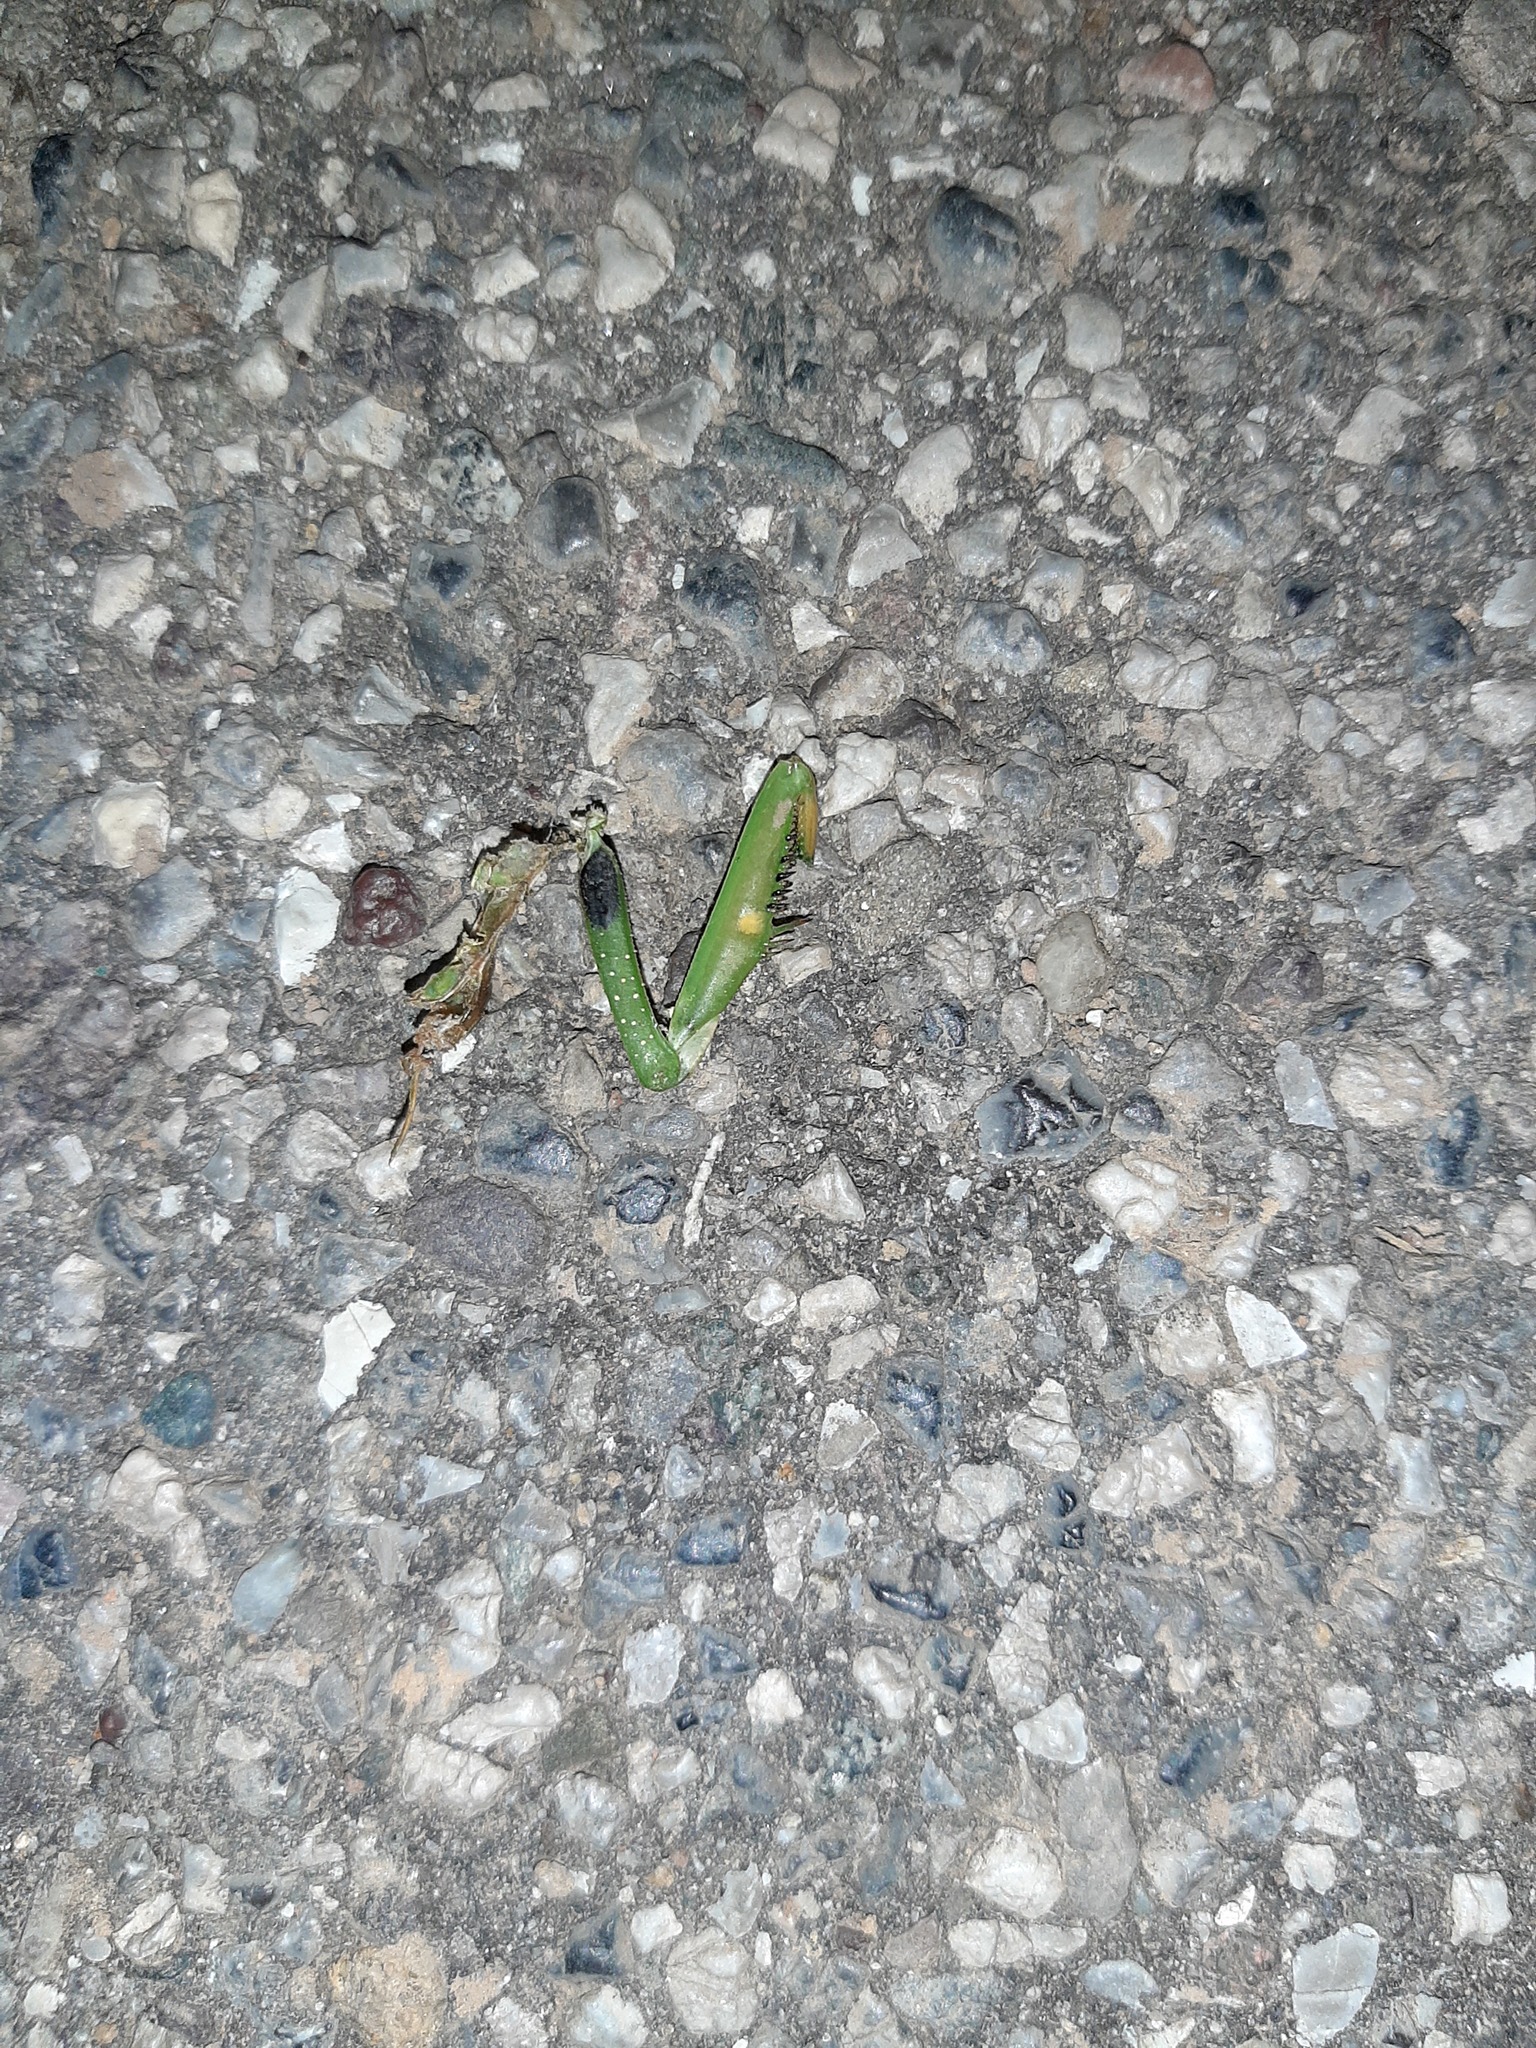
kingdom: Animalia
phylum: Arthropoda
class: Insecta
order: Mantodea
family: Mantidae
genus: Mantis
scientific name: Mantis religiosa
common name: Praying mantis
